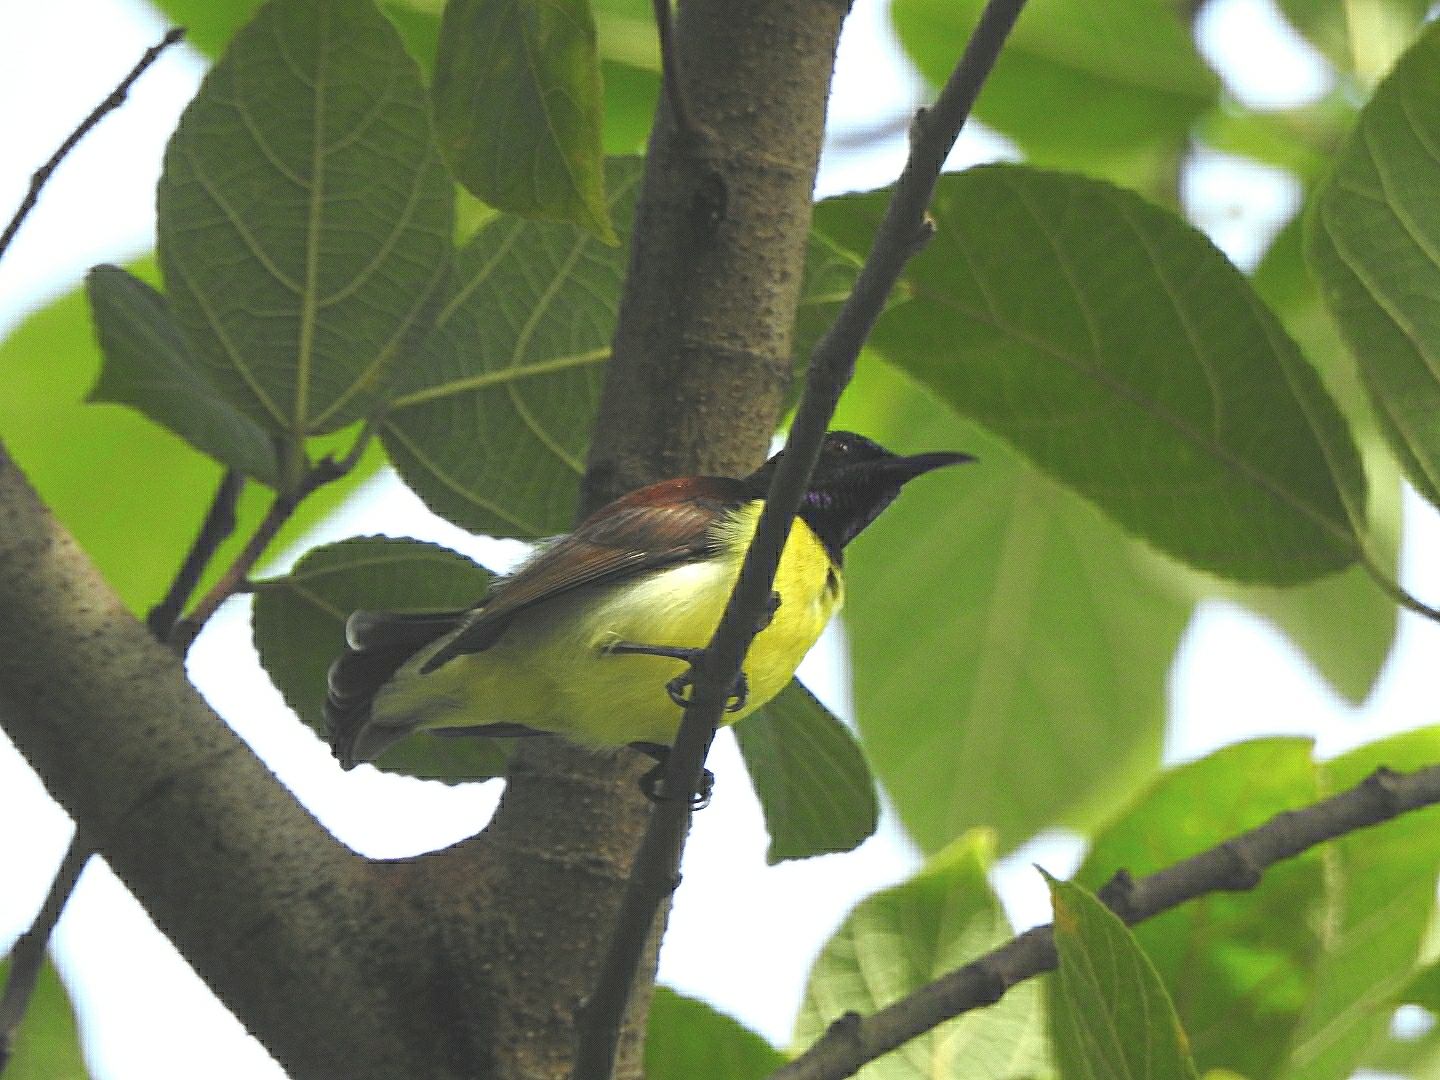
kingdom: Animalia
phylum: Chordata
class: Aves
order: Passeriformes
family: Nectariniidae
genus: Leptocoma
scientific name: Leptocoma zeylonica
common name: Purple-rumped sunbird
